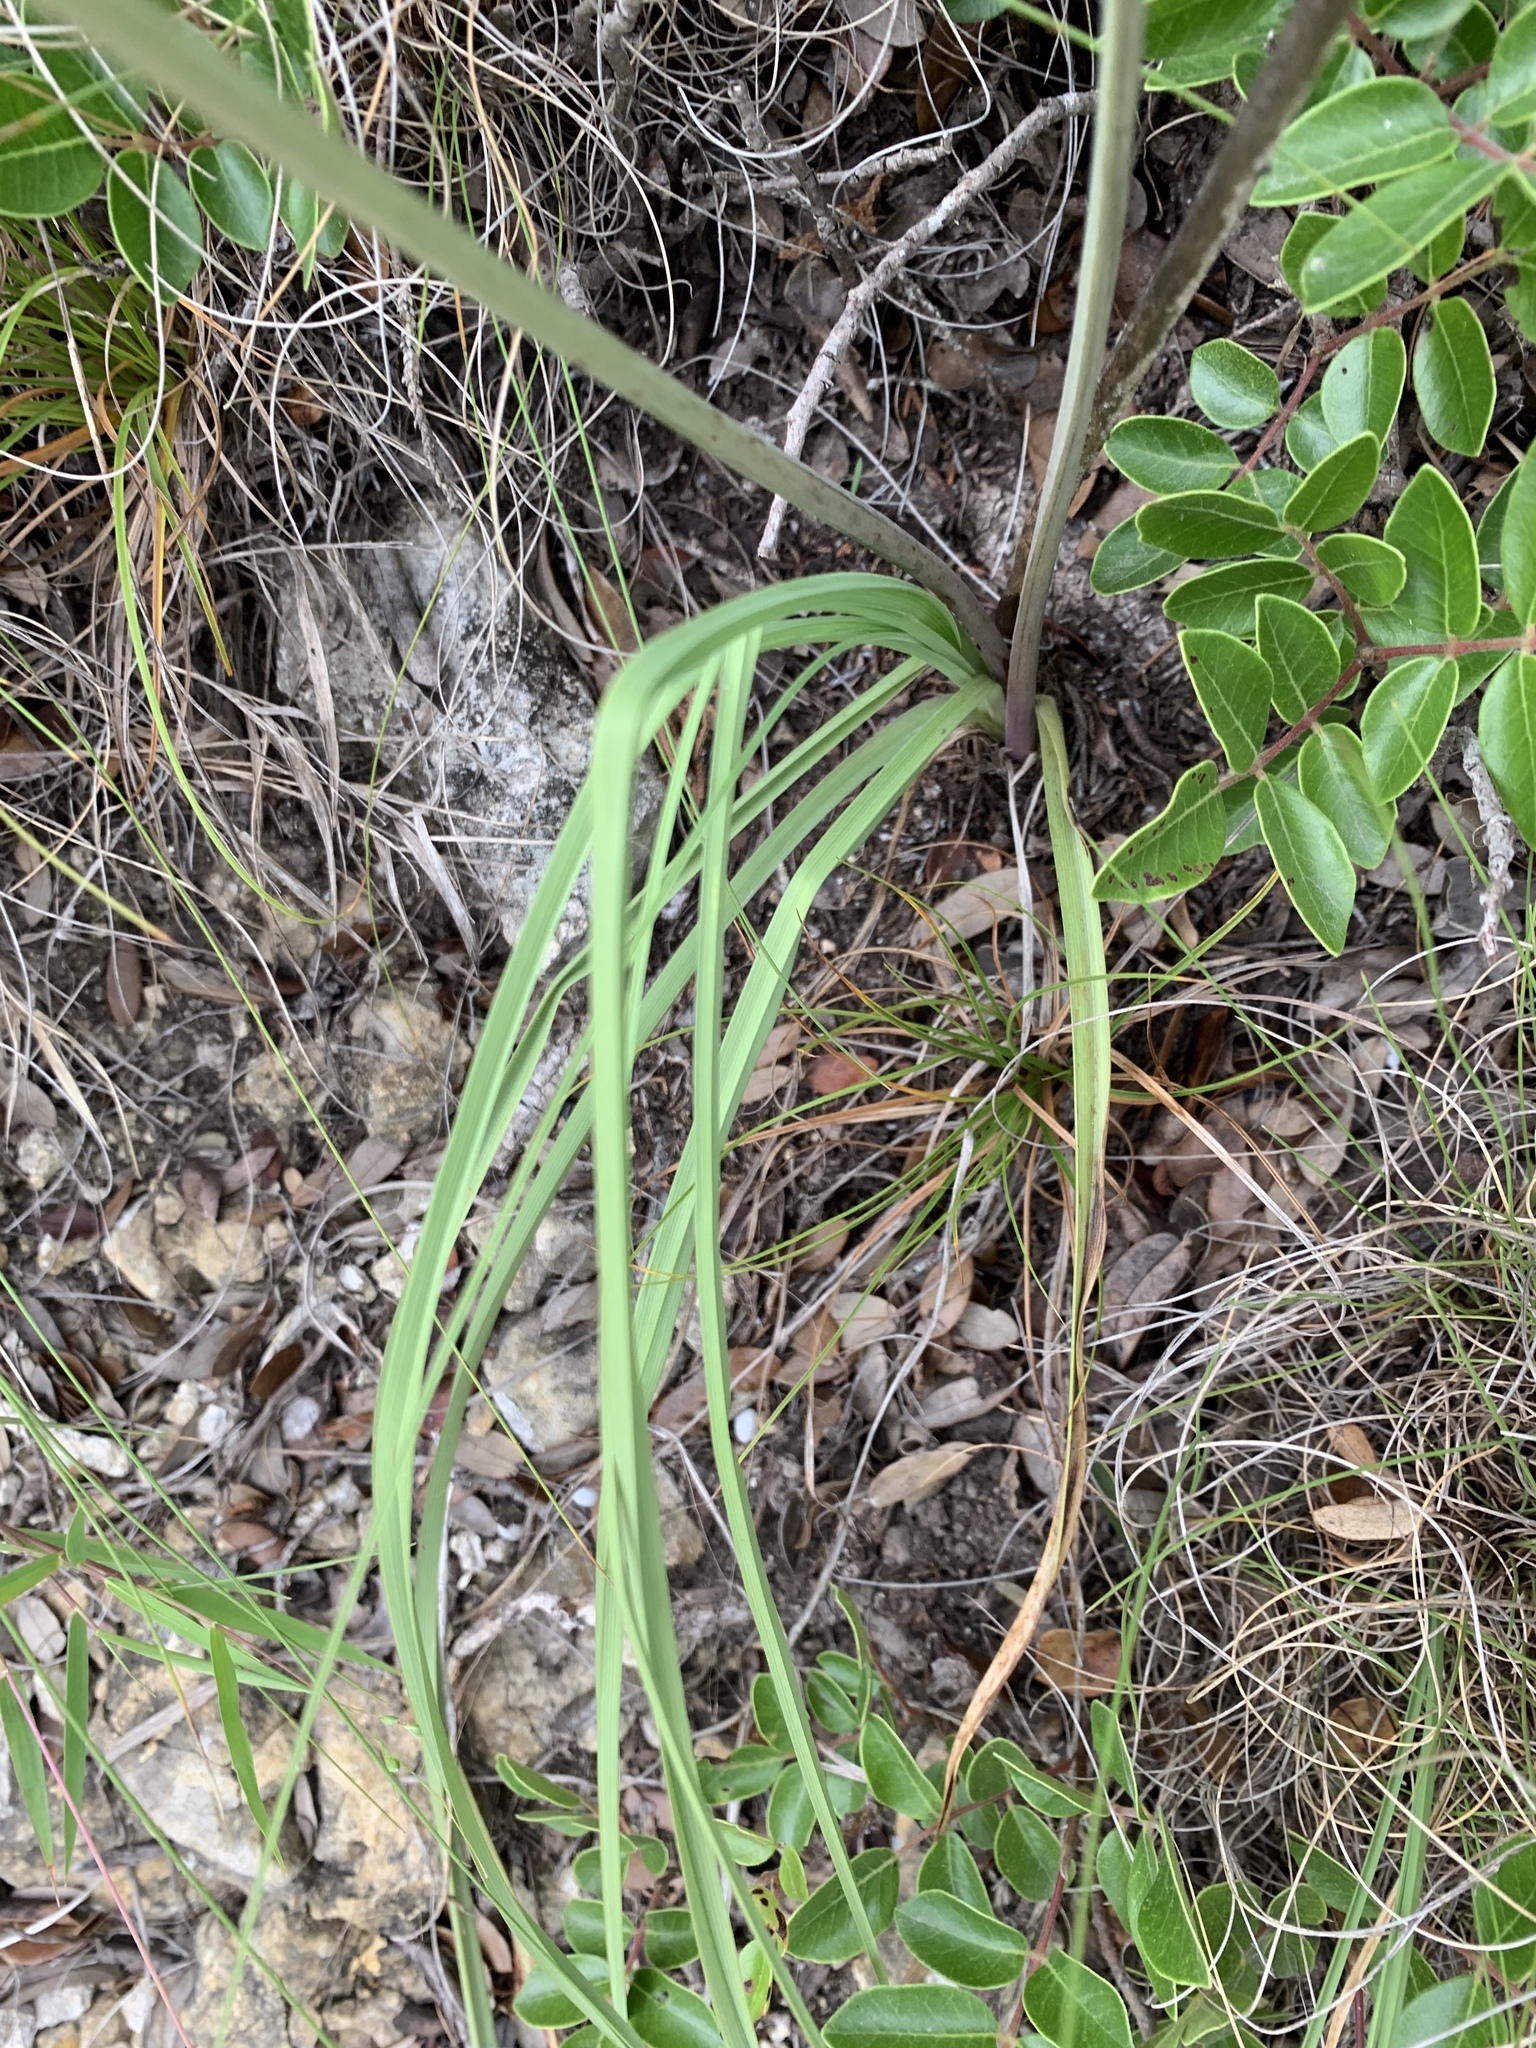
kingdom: Plantae
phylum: Tracheophyta
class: Liliopsida
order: Liliales
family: Melanthiaceae
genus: Schoenocaulon
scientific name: Schoenocaulon texanum
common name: Texas feather-shank
